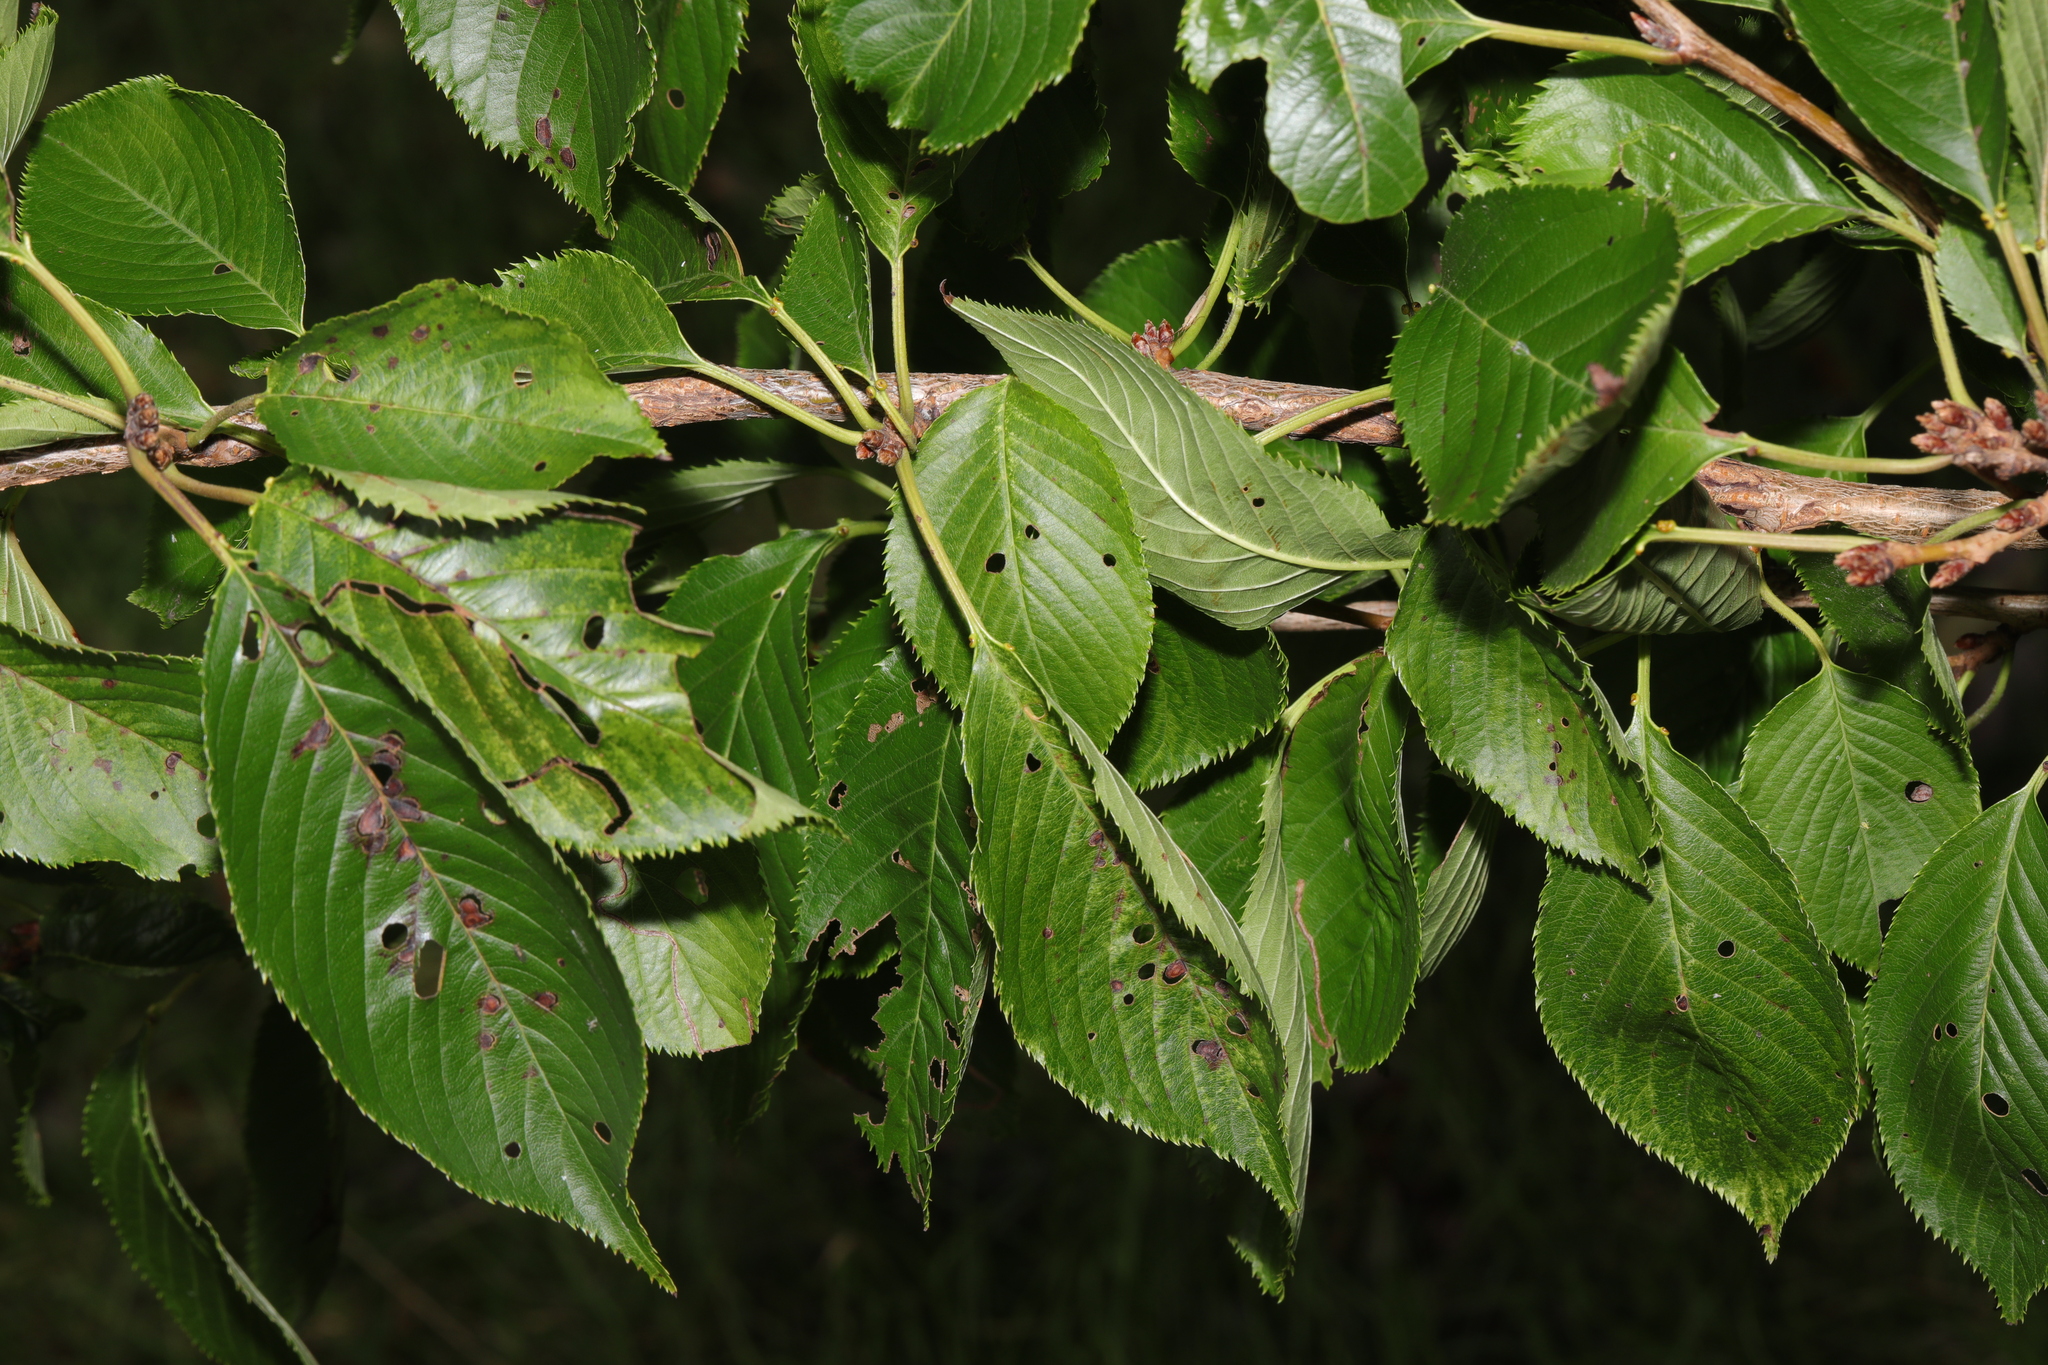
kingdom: Plantae
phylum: Tracheophyta
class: Magnoliopsida
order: Rosales
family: Rosaceae
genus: Prunus
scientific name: Prunus avium
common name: Sweet cherry
